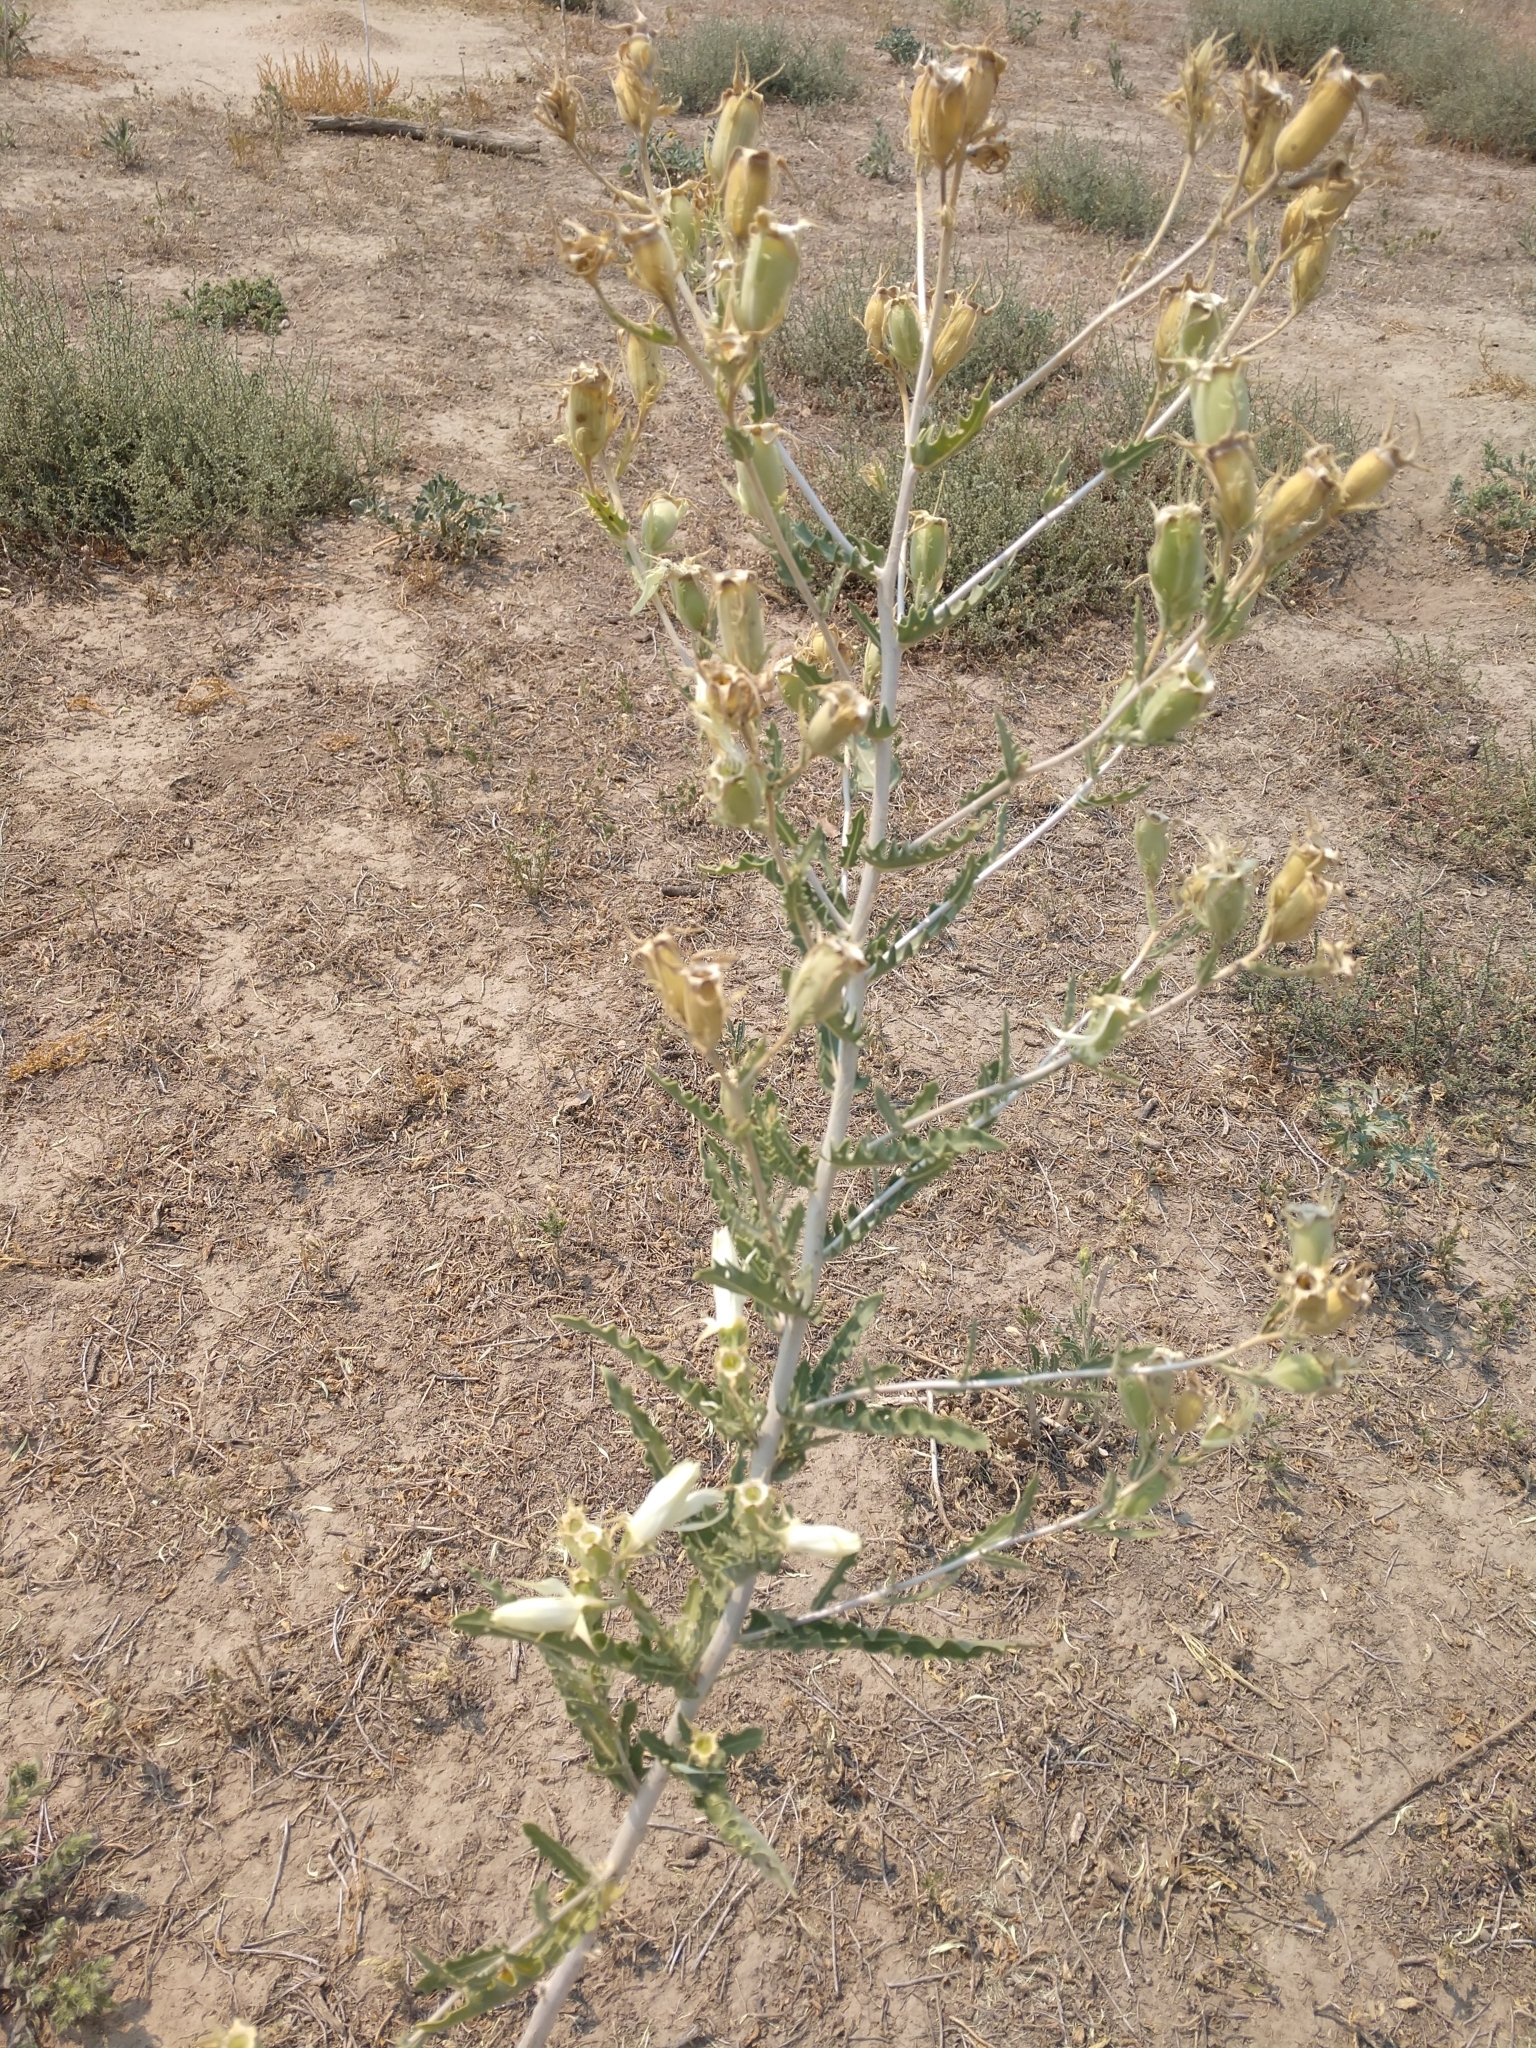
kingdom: Plantae
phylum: Tracheophyta
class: Magnoliopsida
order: Cornales
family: Loasaceae
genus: Mentzelia
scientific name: Mentzelia nuda
